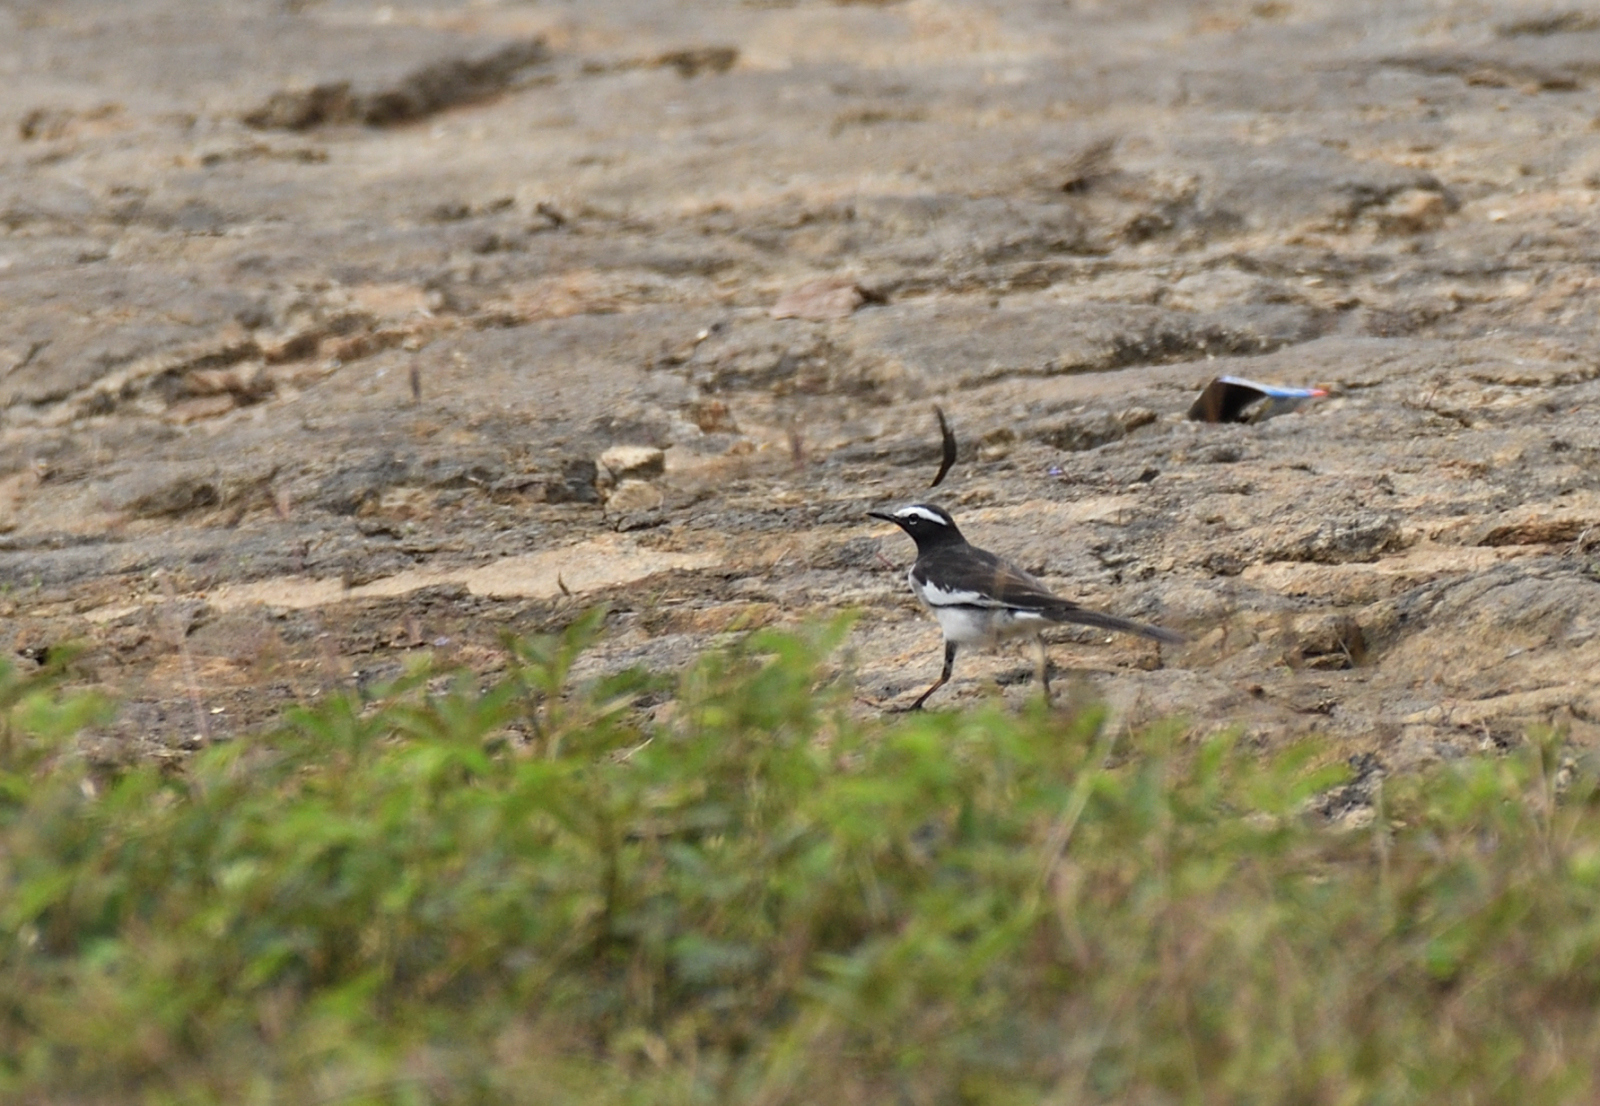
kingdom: Animalia
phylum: Chordata
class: Aves
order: Passeriformes
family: Motacillidae
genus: Motacilla
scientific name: Motacilla maderaspatensis
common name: White-browed wagtail
